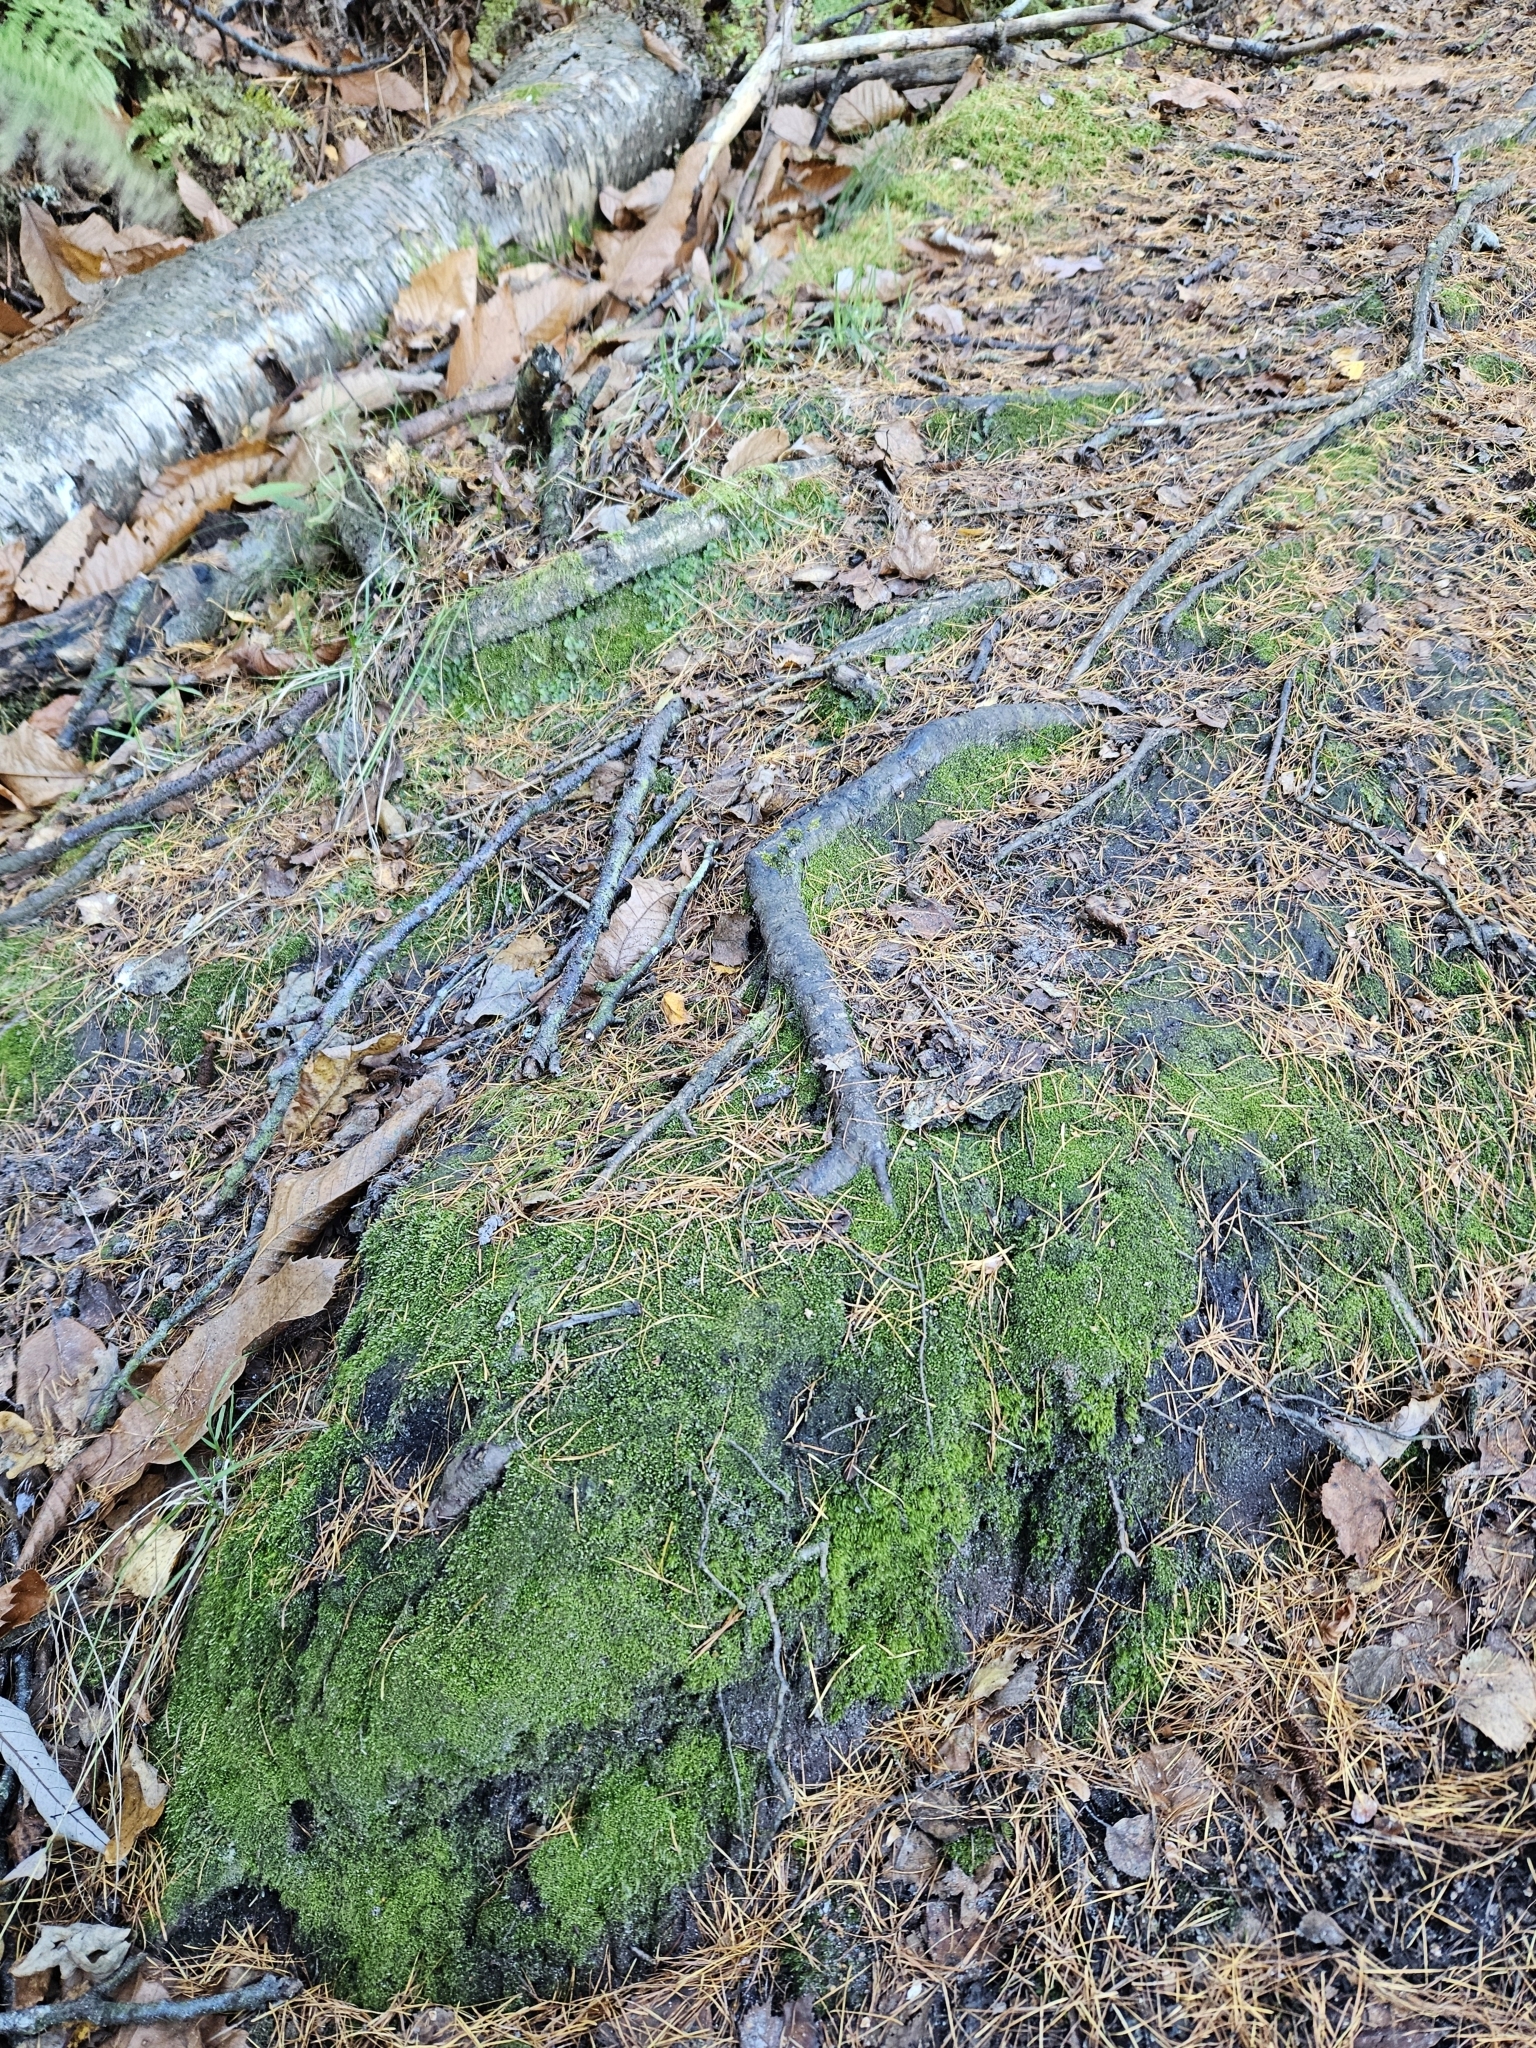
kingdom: Plantae
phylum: Marchantiophyta
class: Jungermanniopsida
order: Jungermanniales
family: Cephaloziaceae
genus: Cephalozia
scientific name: Cephalozia bicuspidata
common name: Two-horned pincerwort
